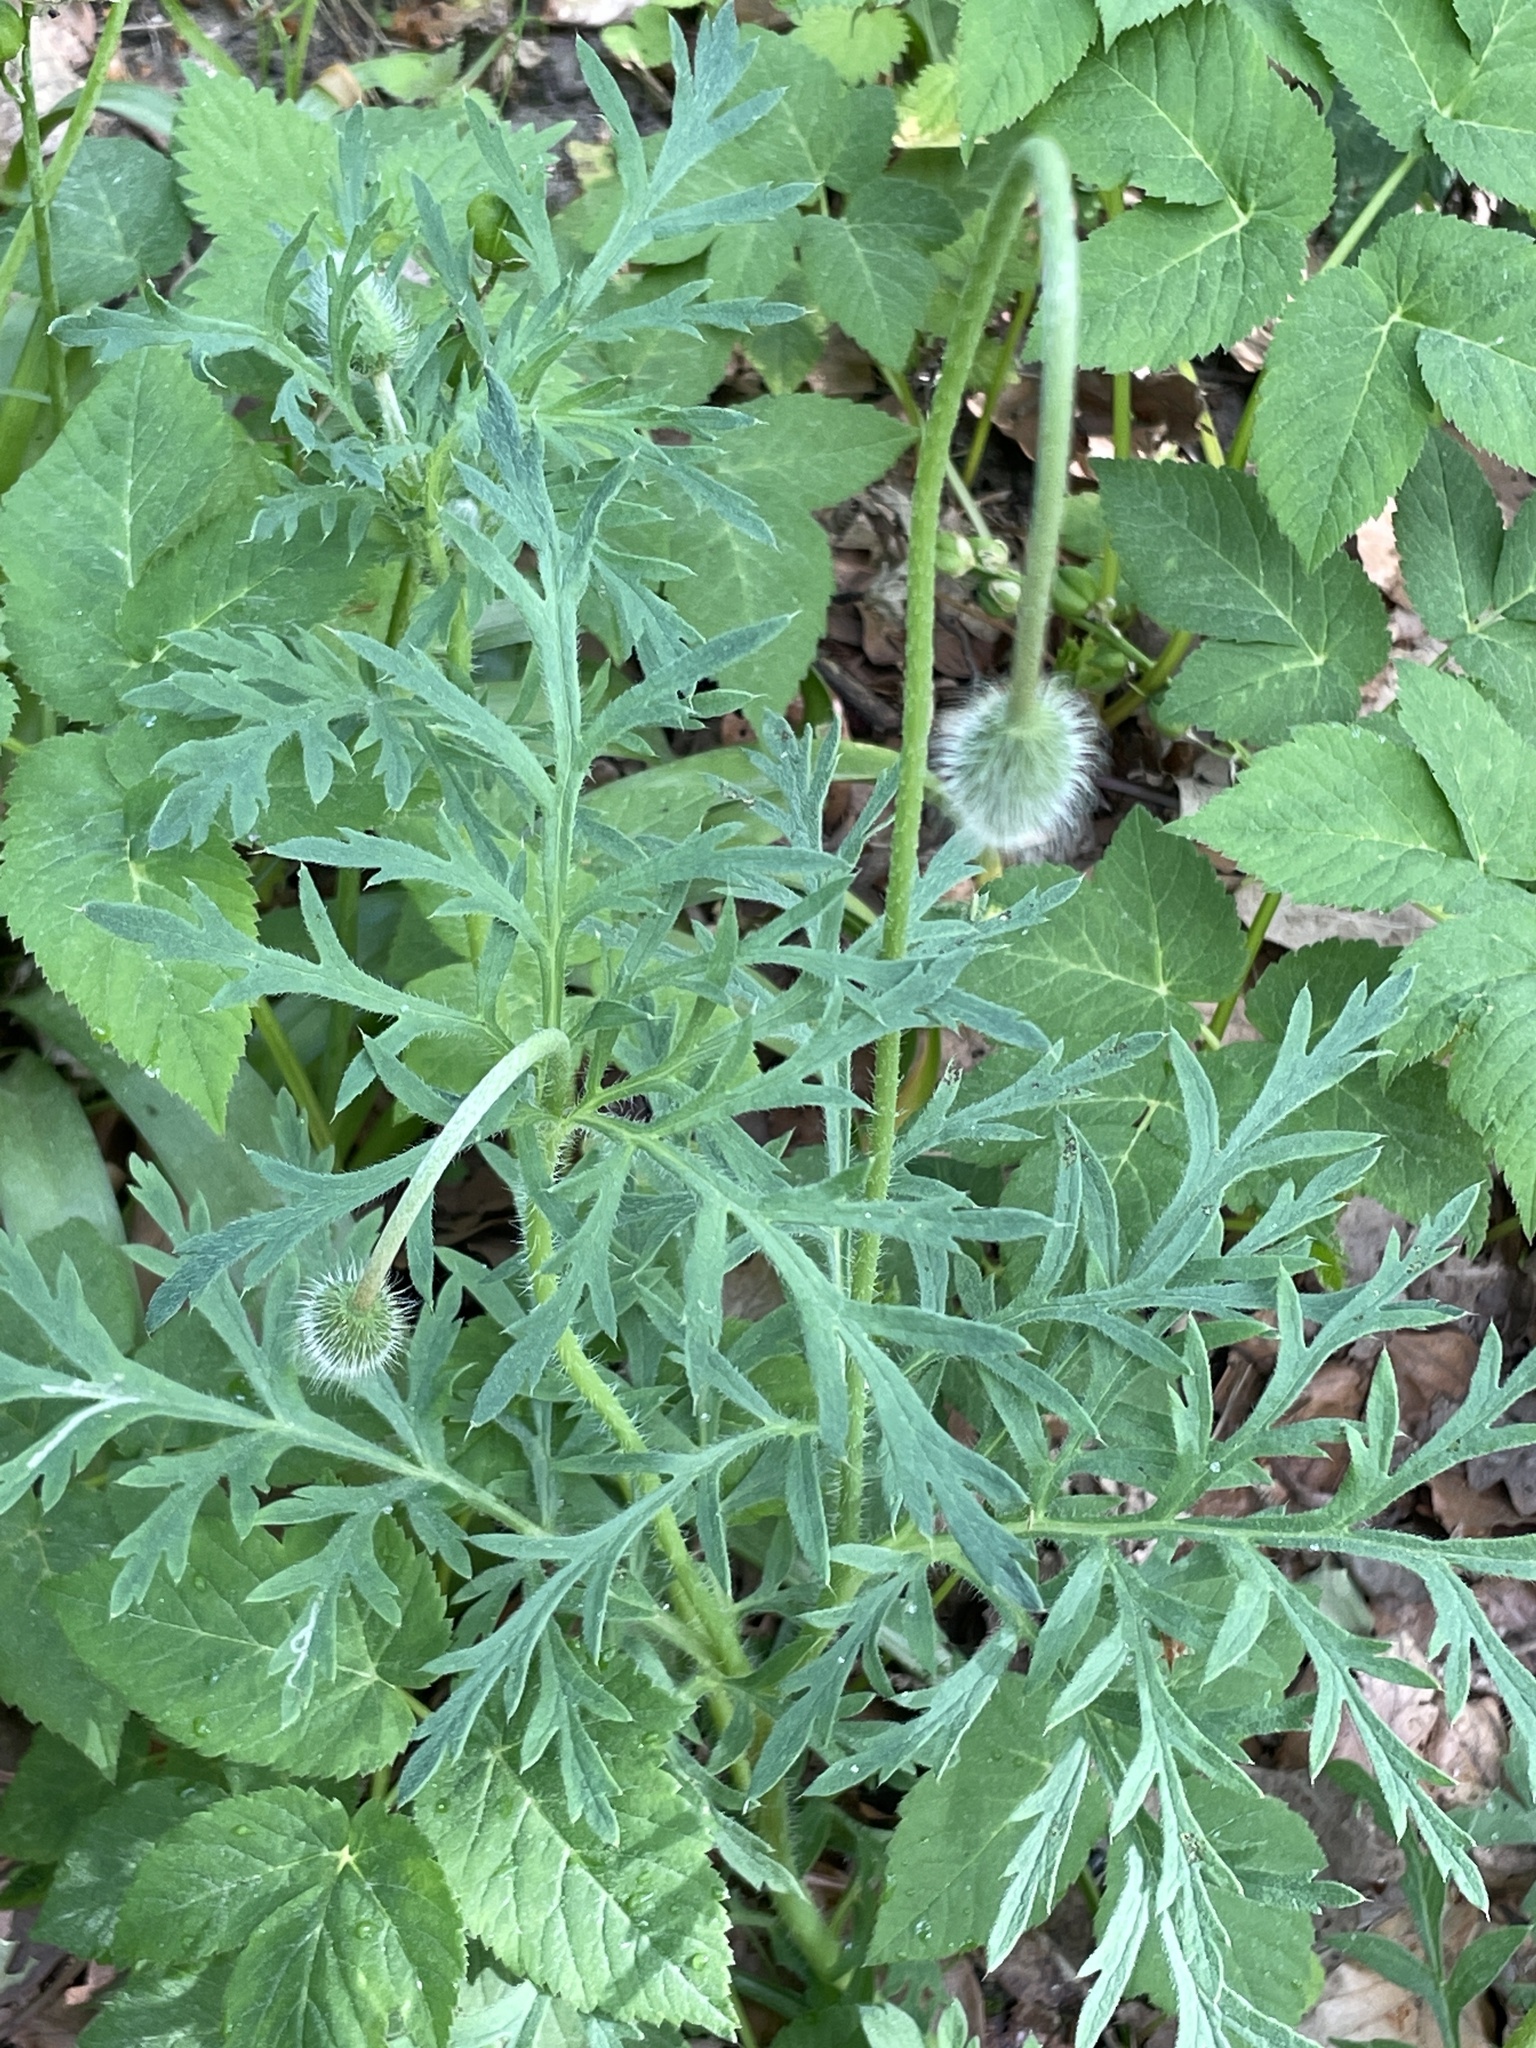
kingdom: Plantae
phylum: Tracheophyta
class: Magnoliopsida
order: Ranunculales
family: Papaveraceae
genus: Papaver
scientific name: Papaver dubium
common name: Long-headed poppy
